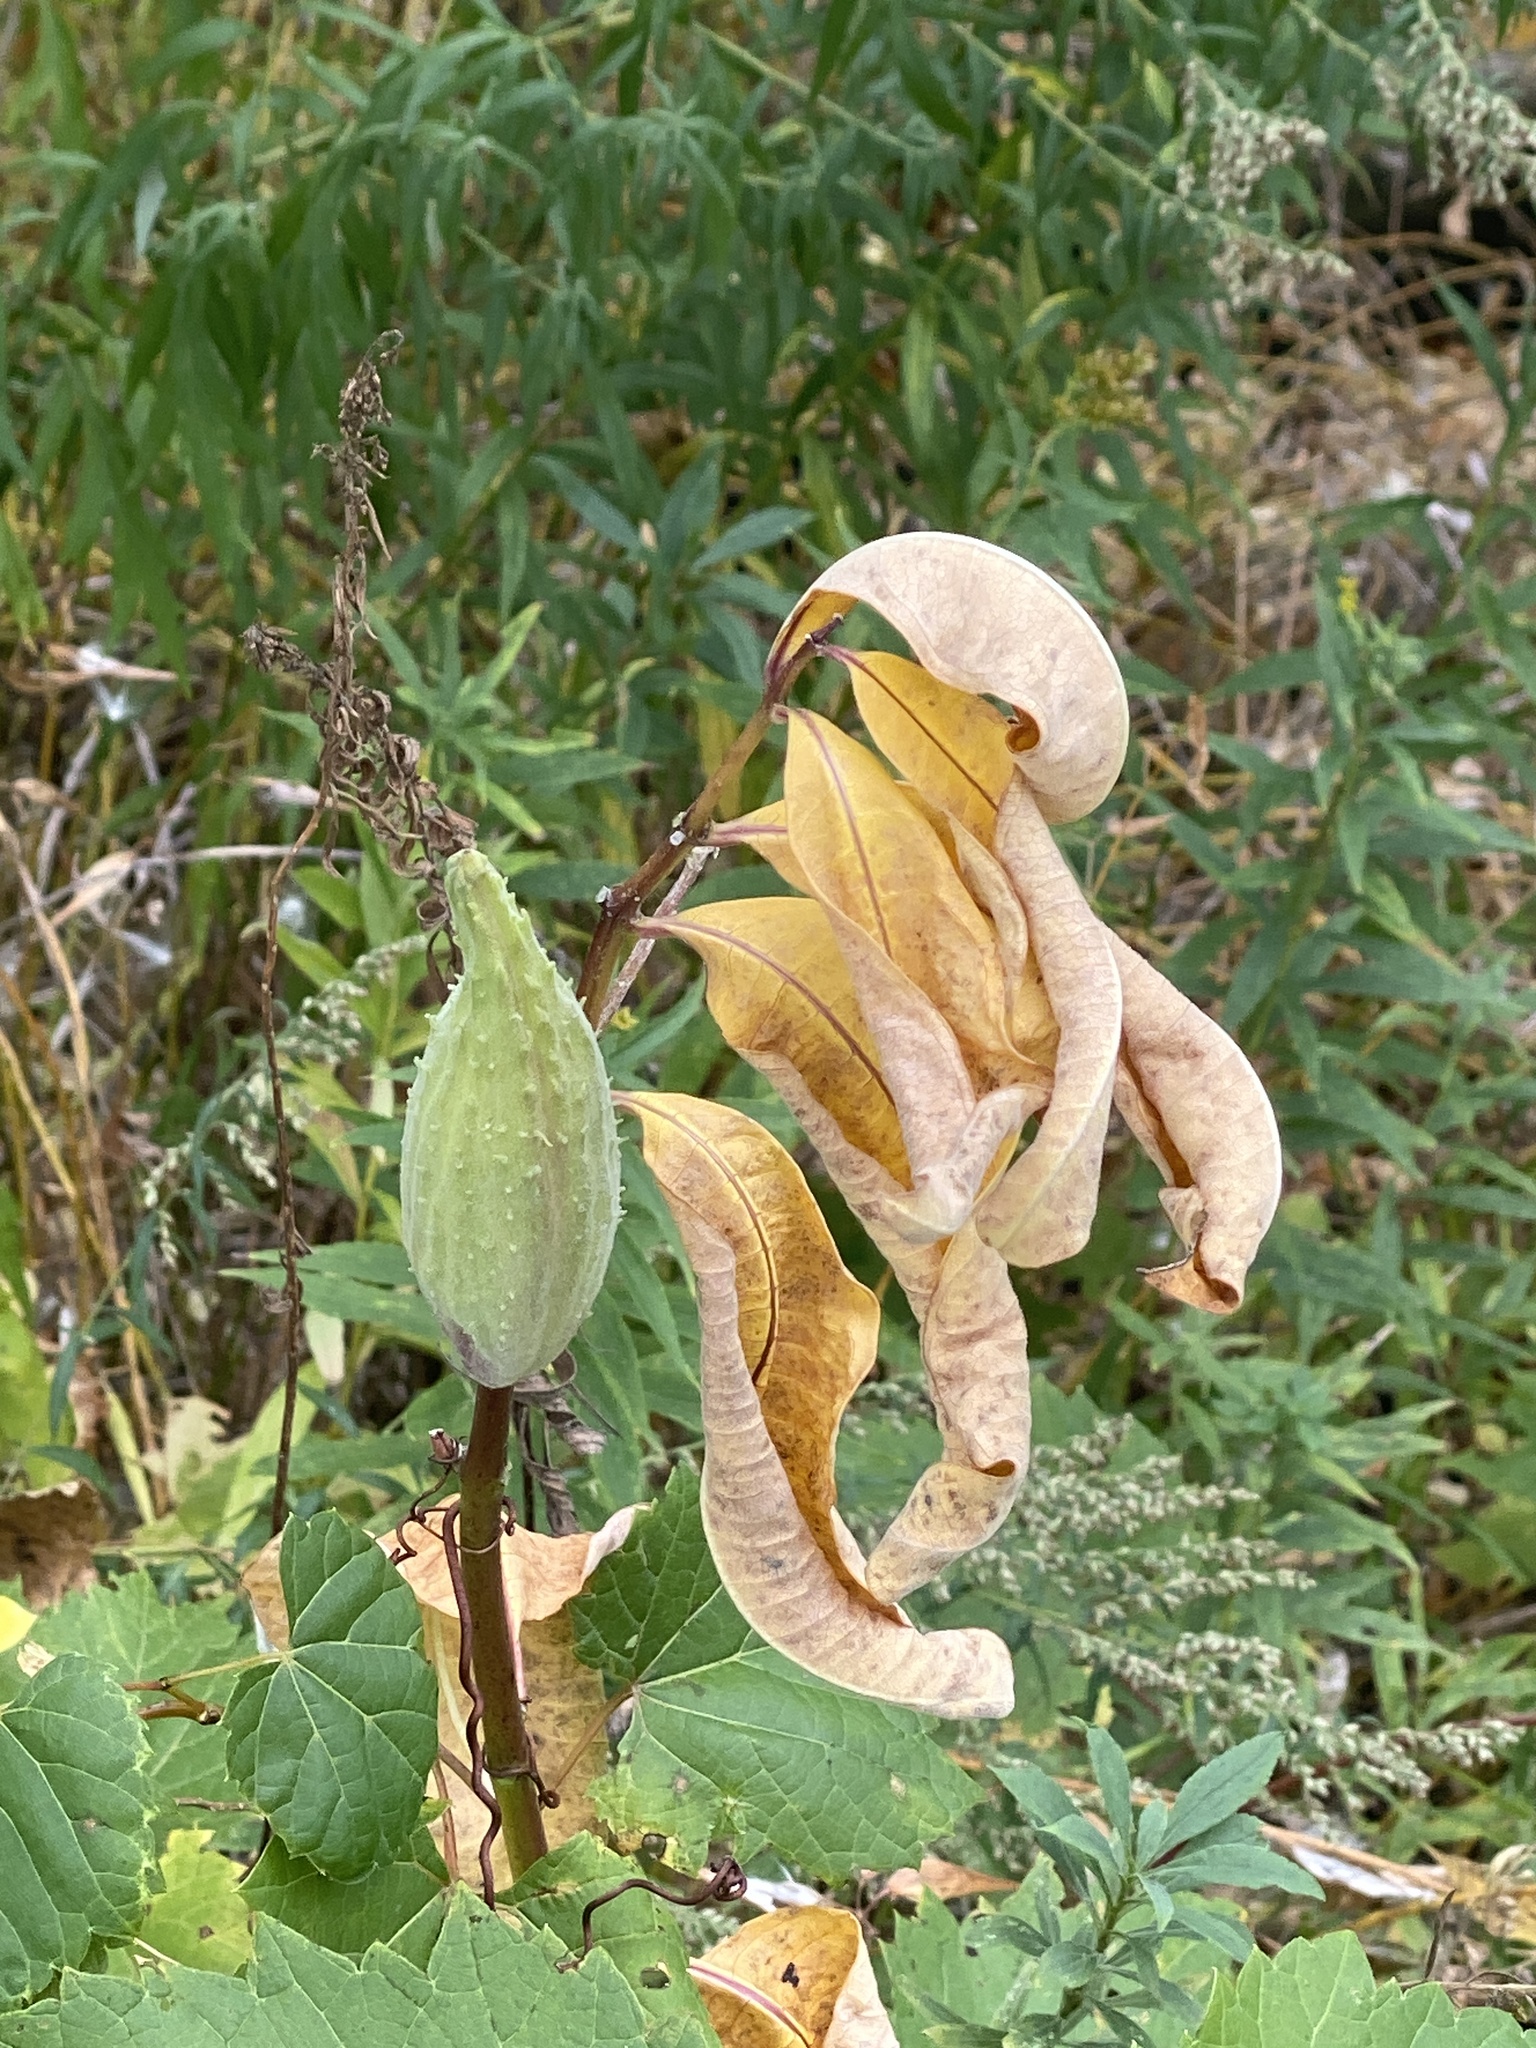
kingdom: Plantae
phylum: Tracheophyta
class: Magnoliopsida
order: Gentianales
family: Apocynaceae
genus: Asclepias
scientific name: Asclepias syriaca
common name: Common milkweed
